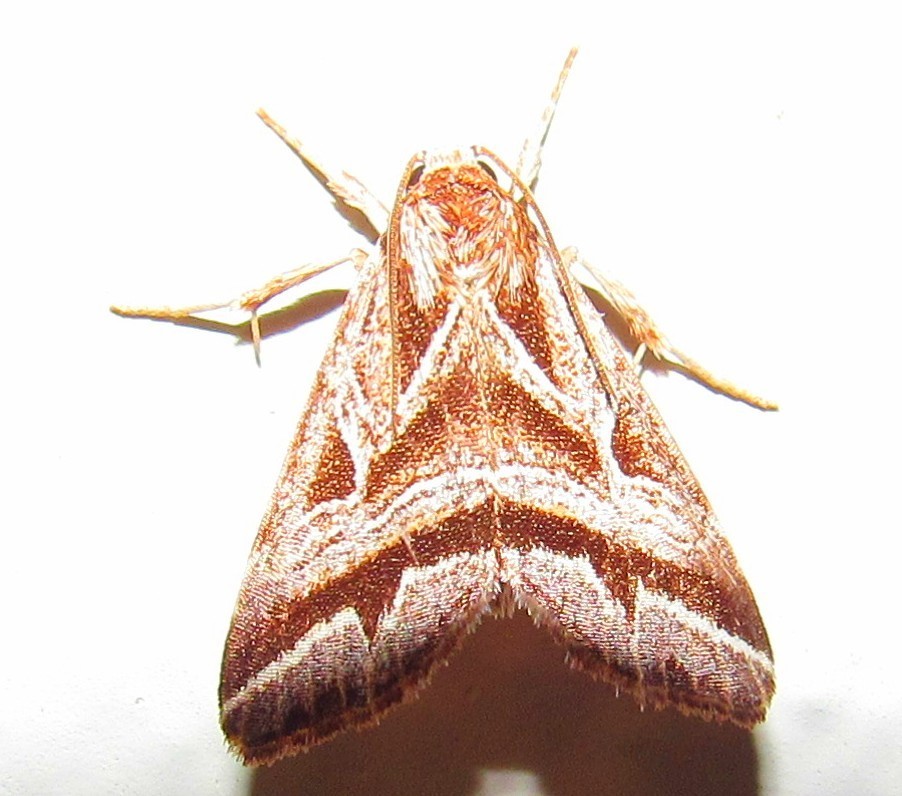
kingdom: Animalia
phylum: Arthropoda
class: Insecta
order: Lepidoptera
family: Noctuidae
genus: Phuphena
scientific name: Phuphena petrovna
